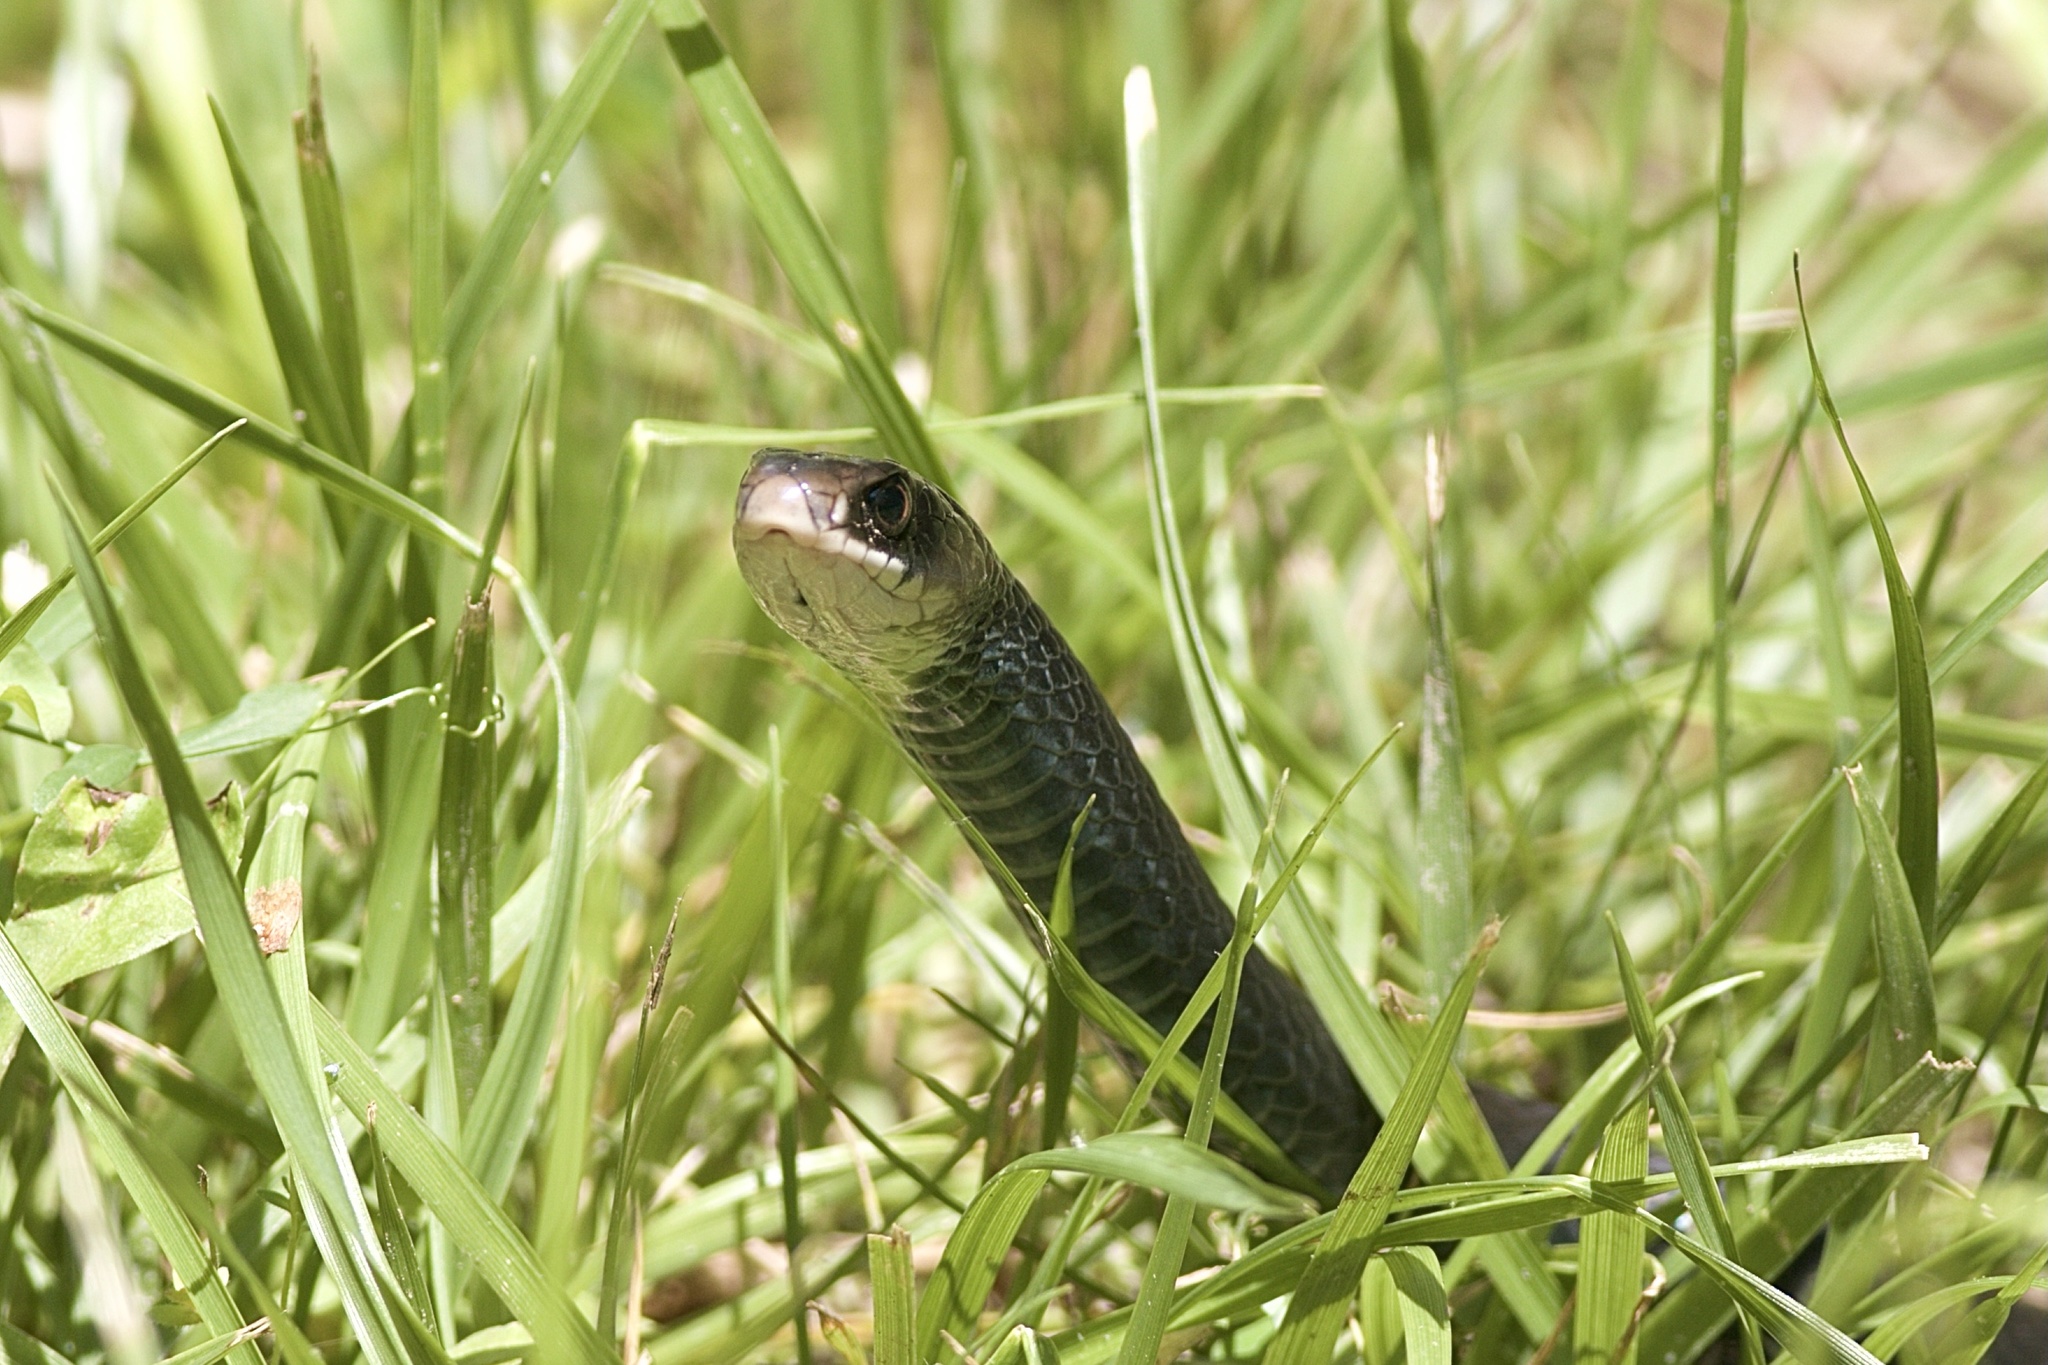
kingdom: Animalia
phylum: Chordata
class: Squamata
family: Colubridae
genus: Coluber
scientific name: Coluber constrictor
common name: Eastern racer
